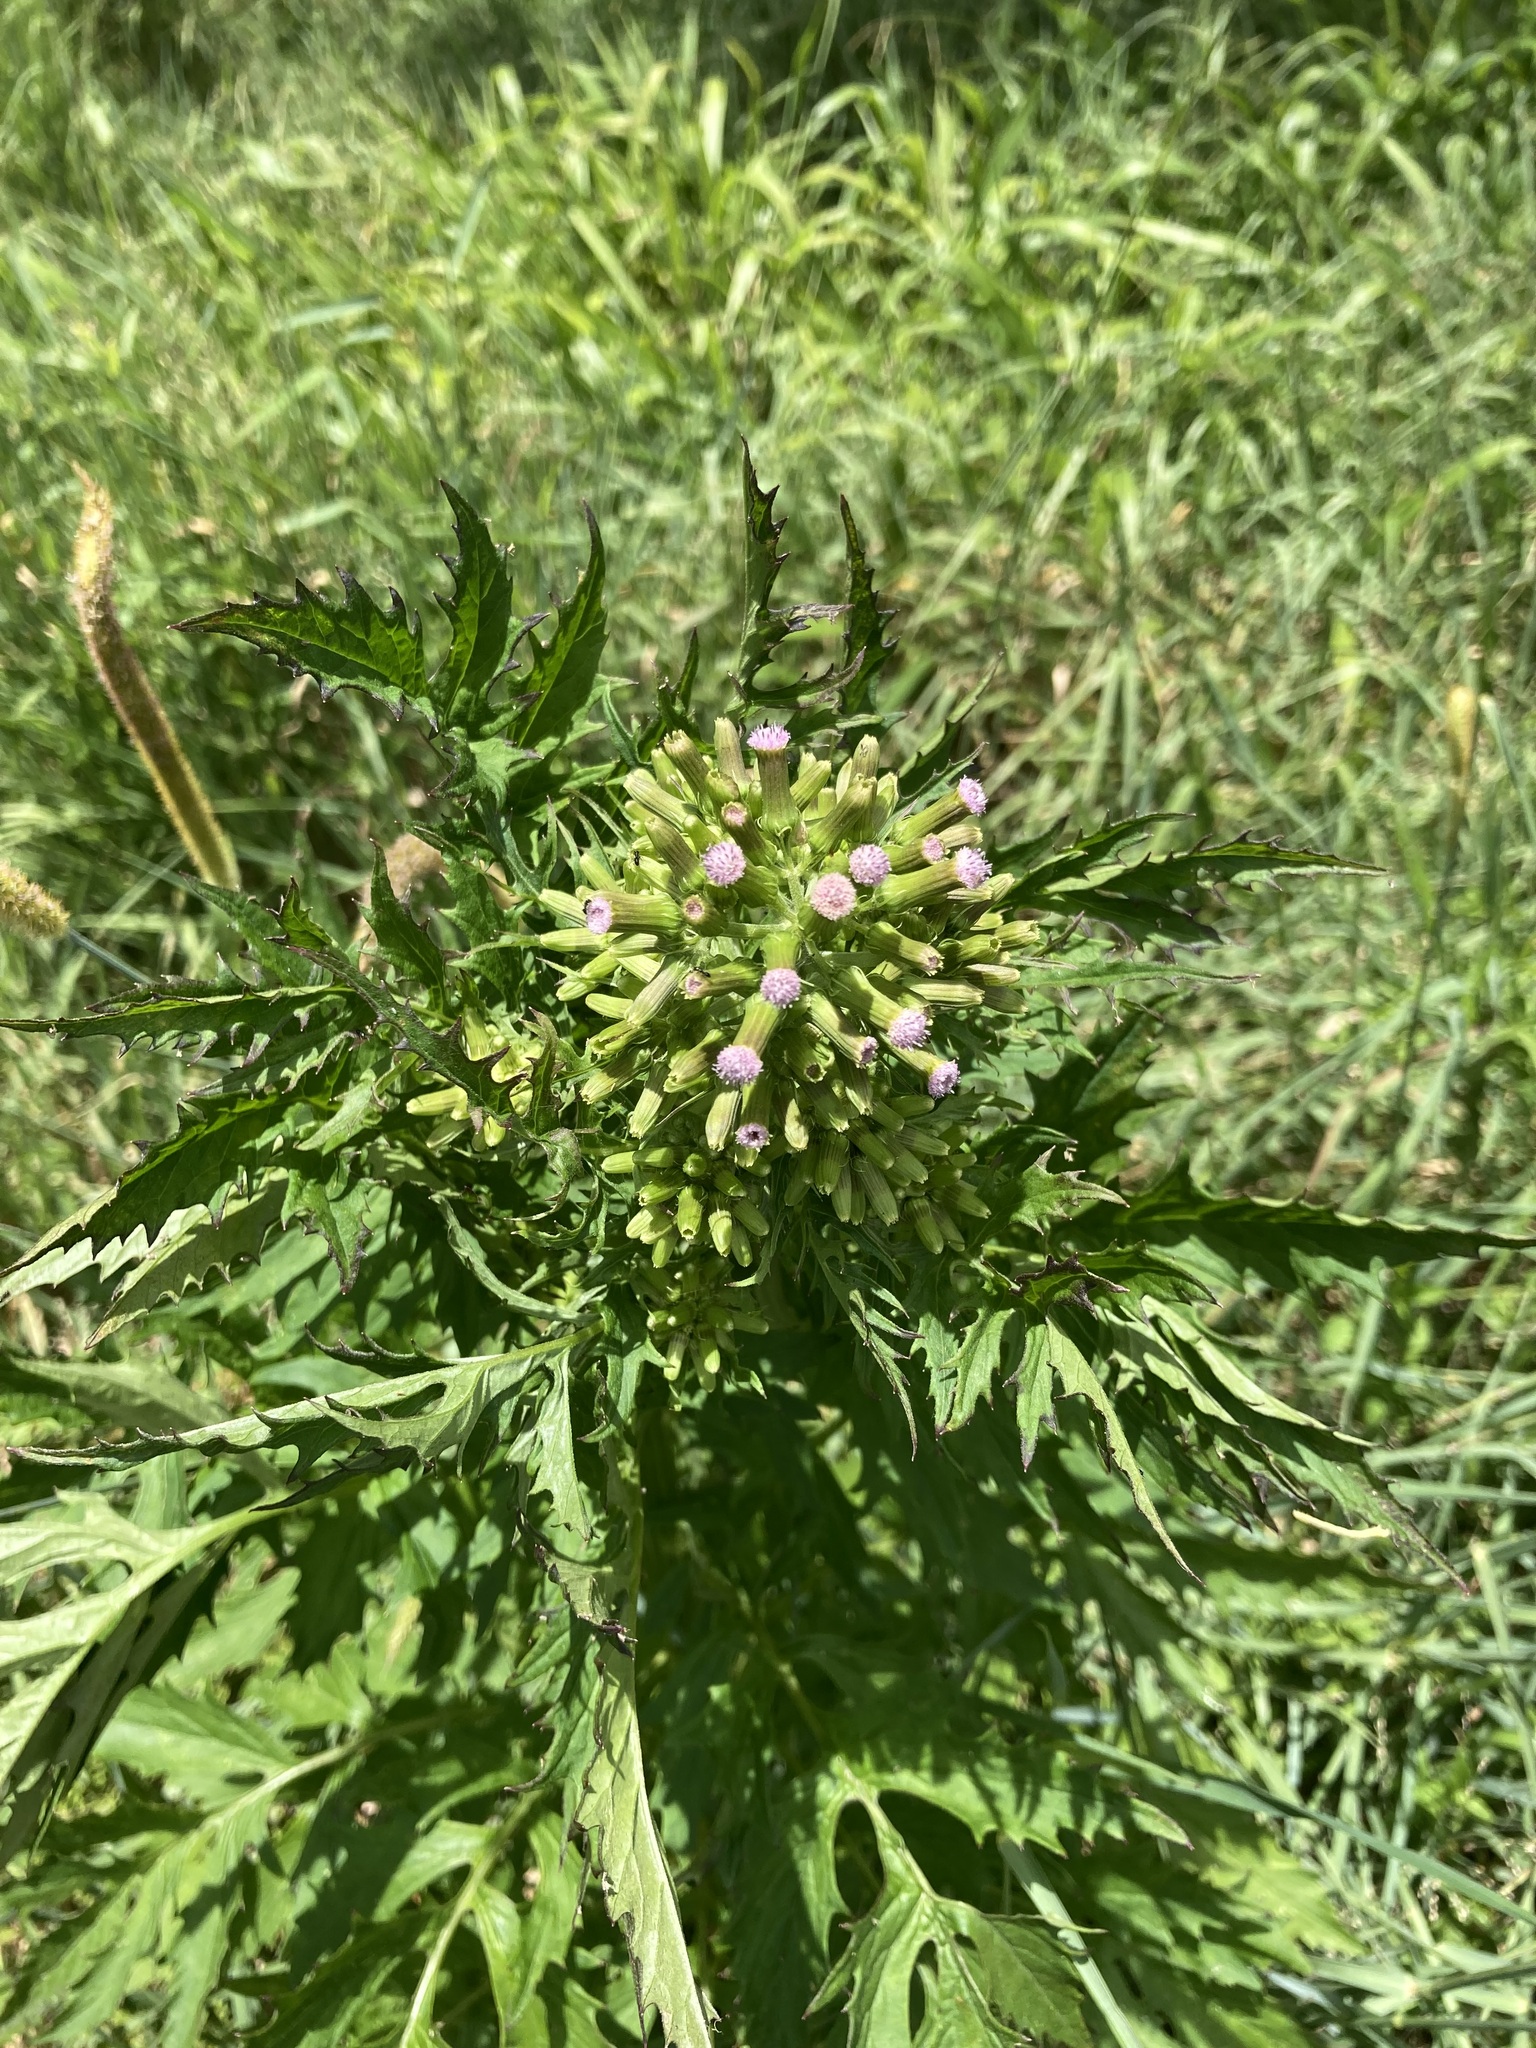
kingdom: Plantae
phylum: Tracheophyta
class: Magnoliopsida
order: Asterales
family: Asteraceae
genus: Erechtites
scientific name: Erechtites valerianifolius
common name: Tropical burnweed
